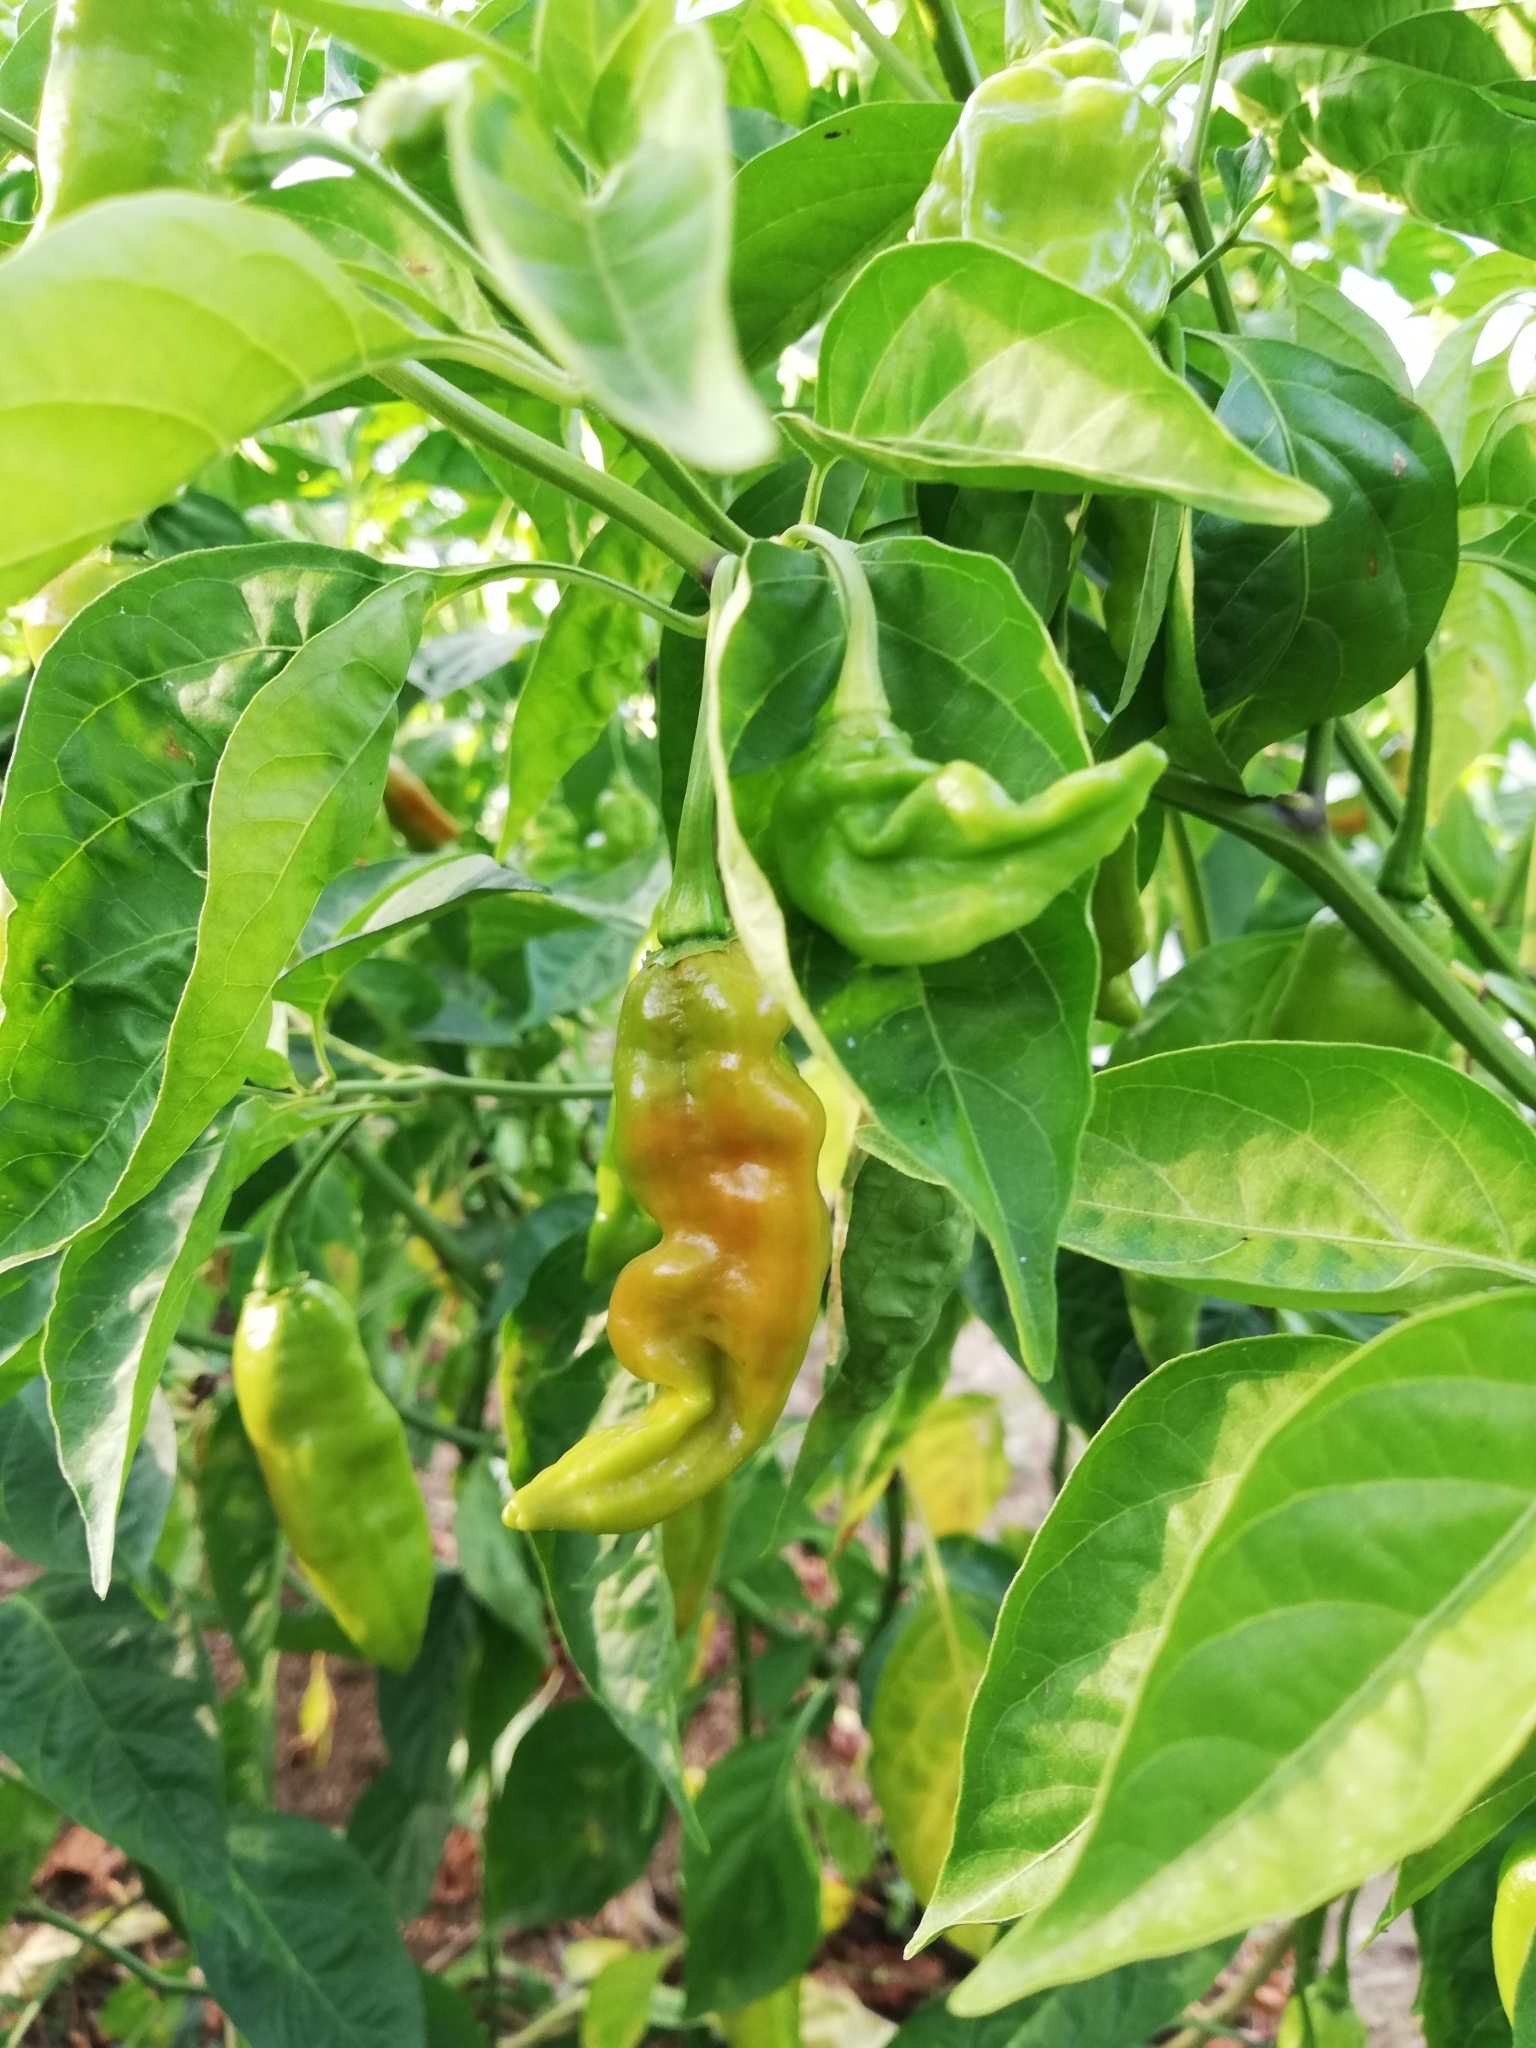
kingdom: Plantae
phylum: Tracheophyta
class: Magnoliopsida
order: Solanales
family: Solanaceae
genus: Capsicum
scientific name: Capsicum annuum
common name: Sweet pepper
